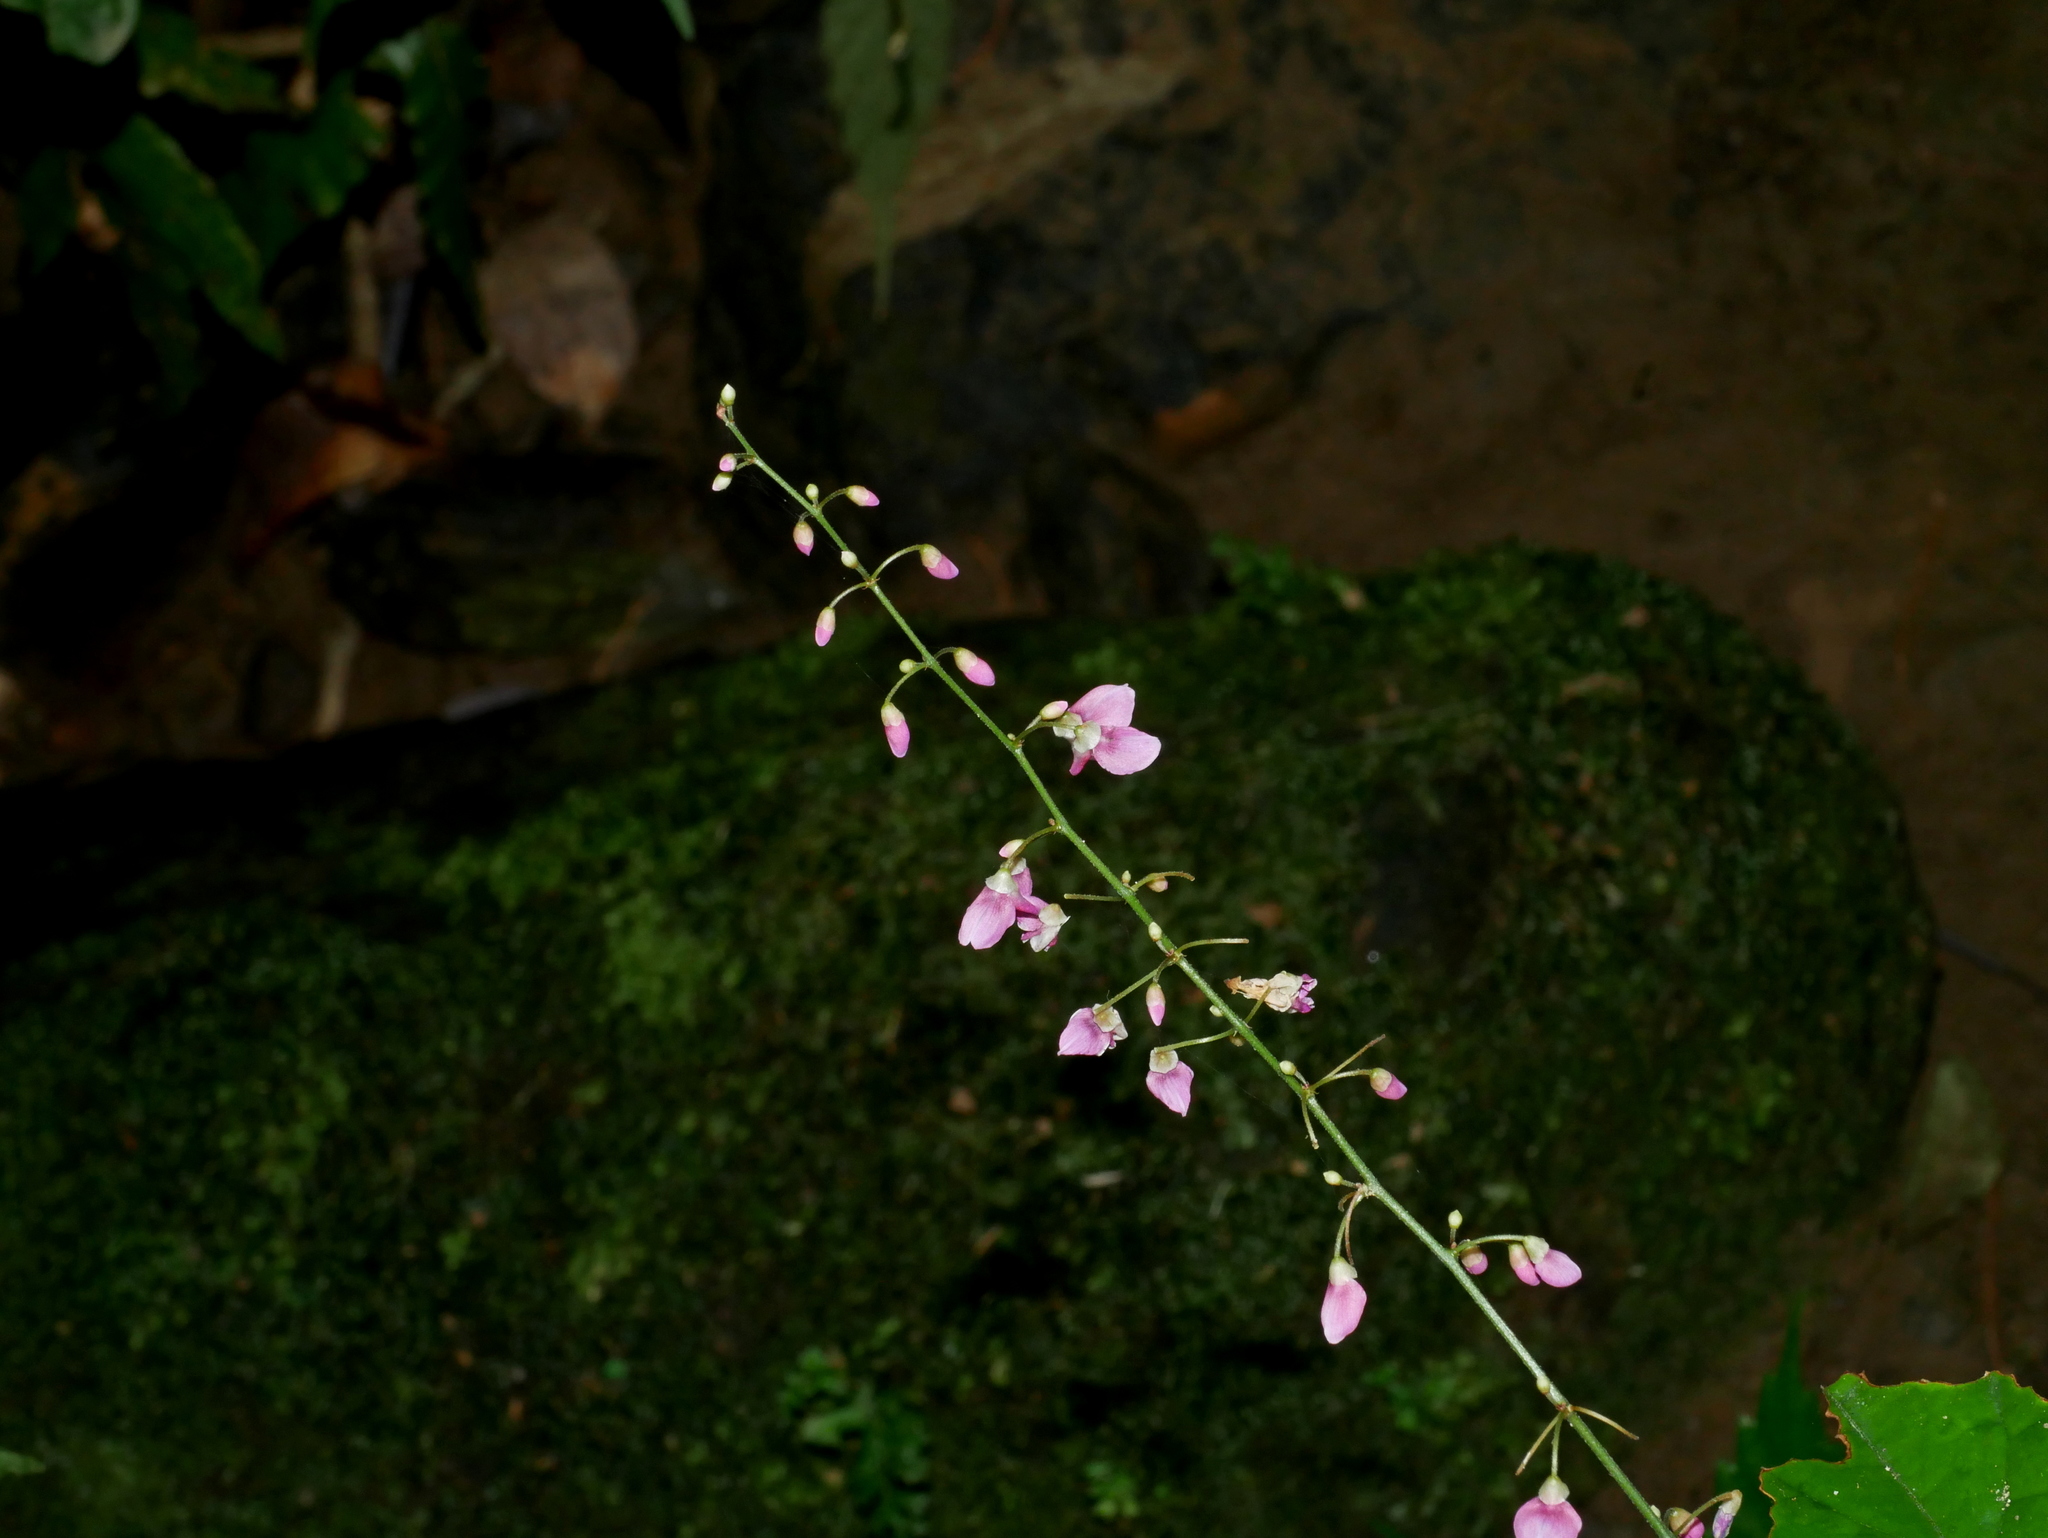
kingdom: Plantae
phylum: Tracheophyta
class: Magnoliopsida
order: Fabales
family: Fabaceae
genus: Hylodesmum
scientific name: Hylodesmum leptopus
